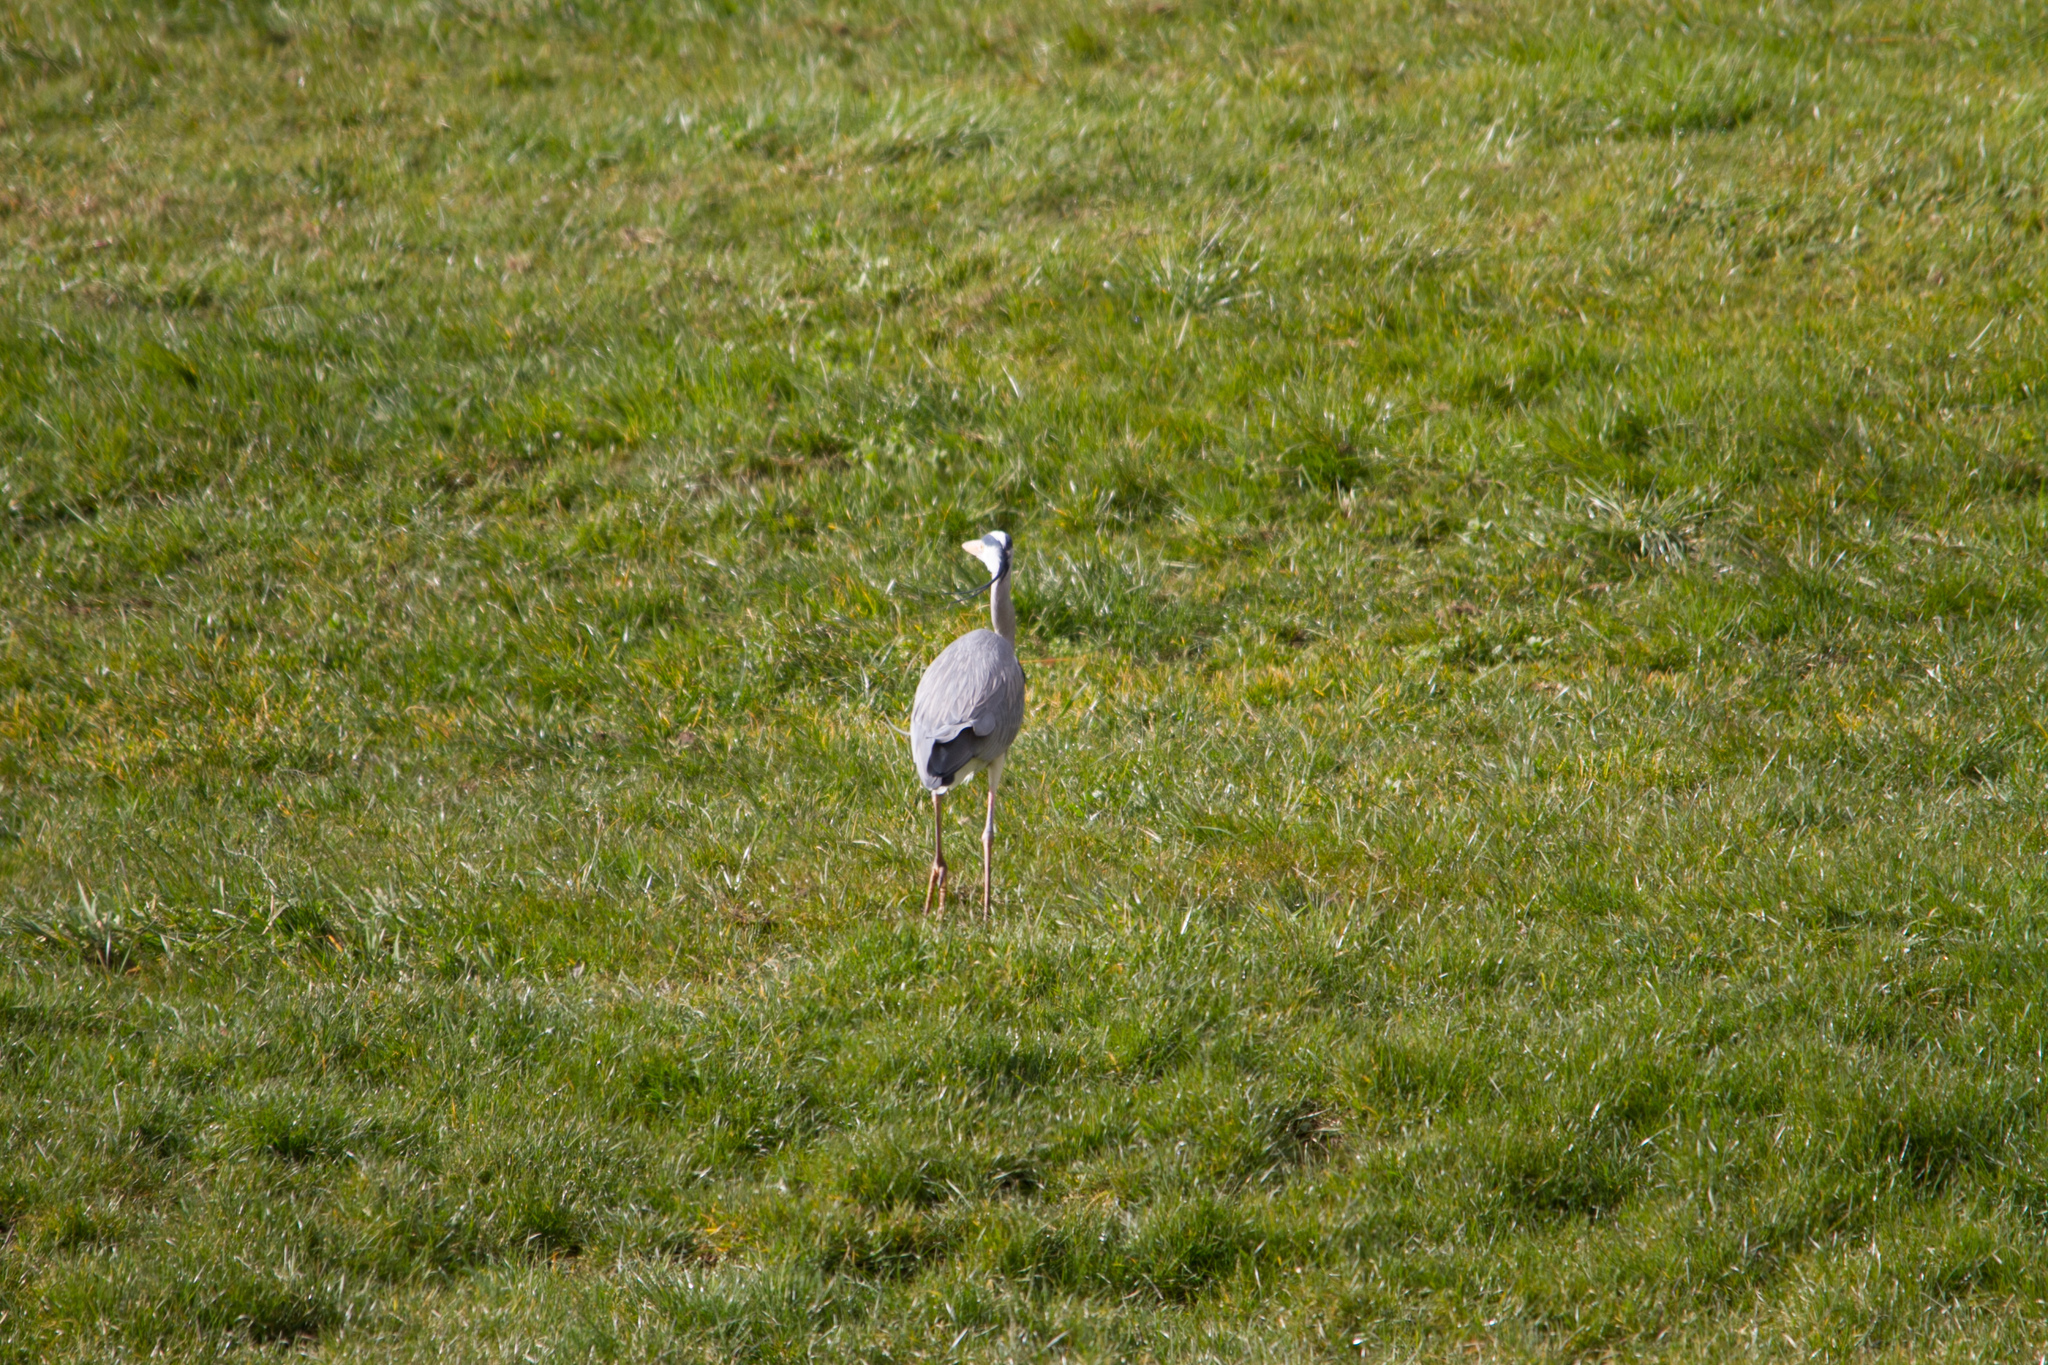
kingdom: Animalia
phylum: Chordata
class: Aves
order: Pelecaniformes
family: Ardeidae
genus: Ardea
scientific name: Ardea cinerea
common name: Grey heron
